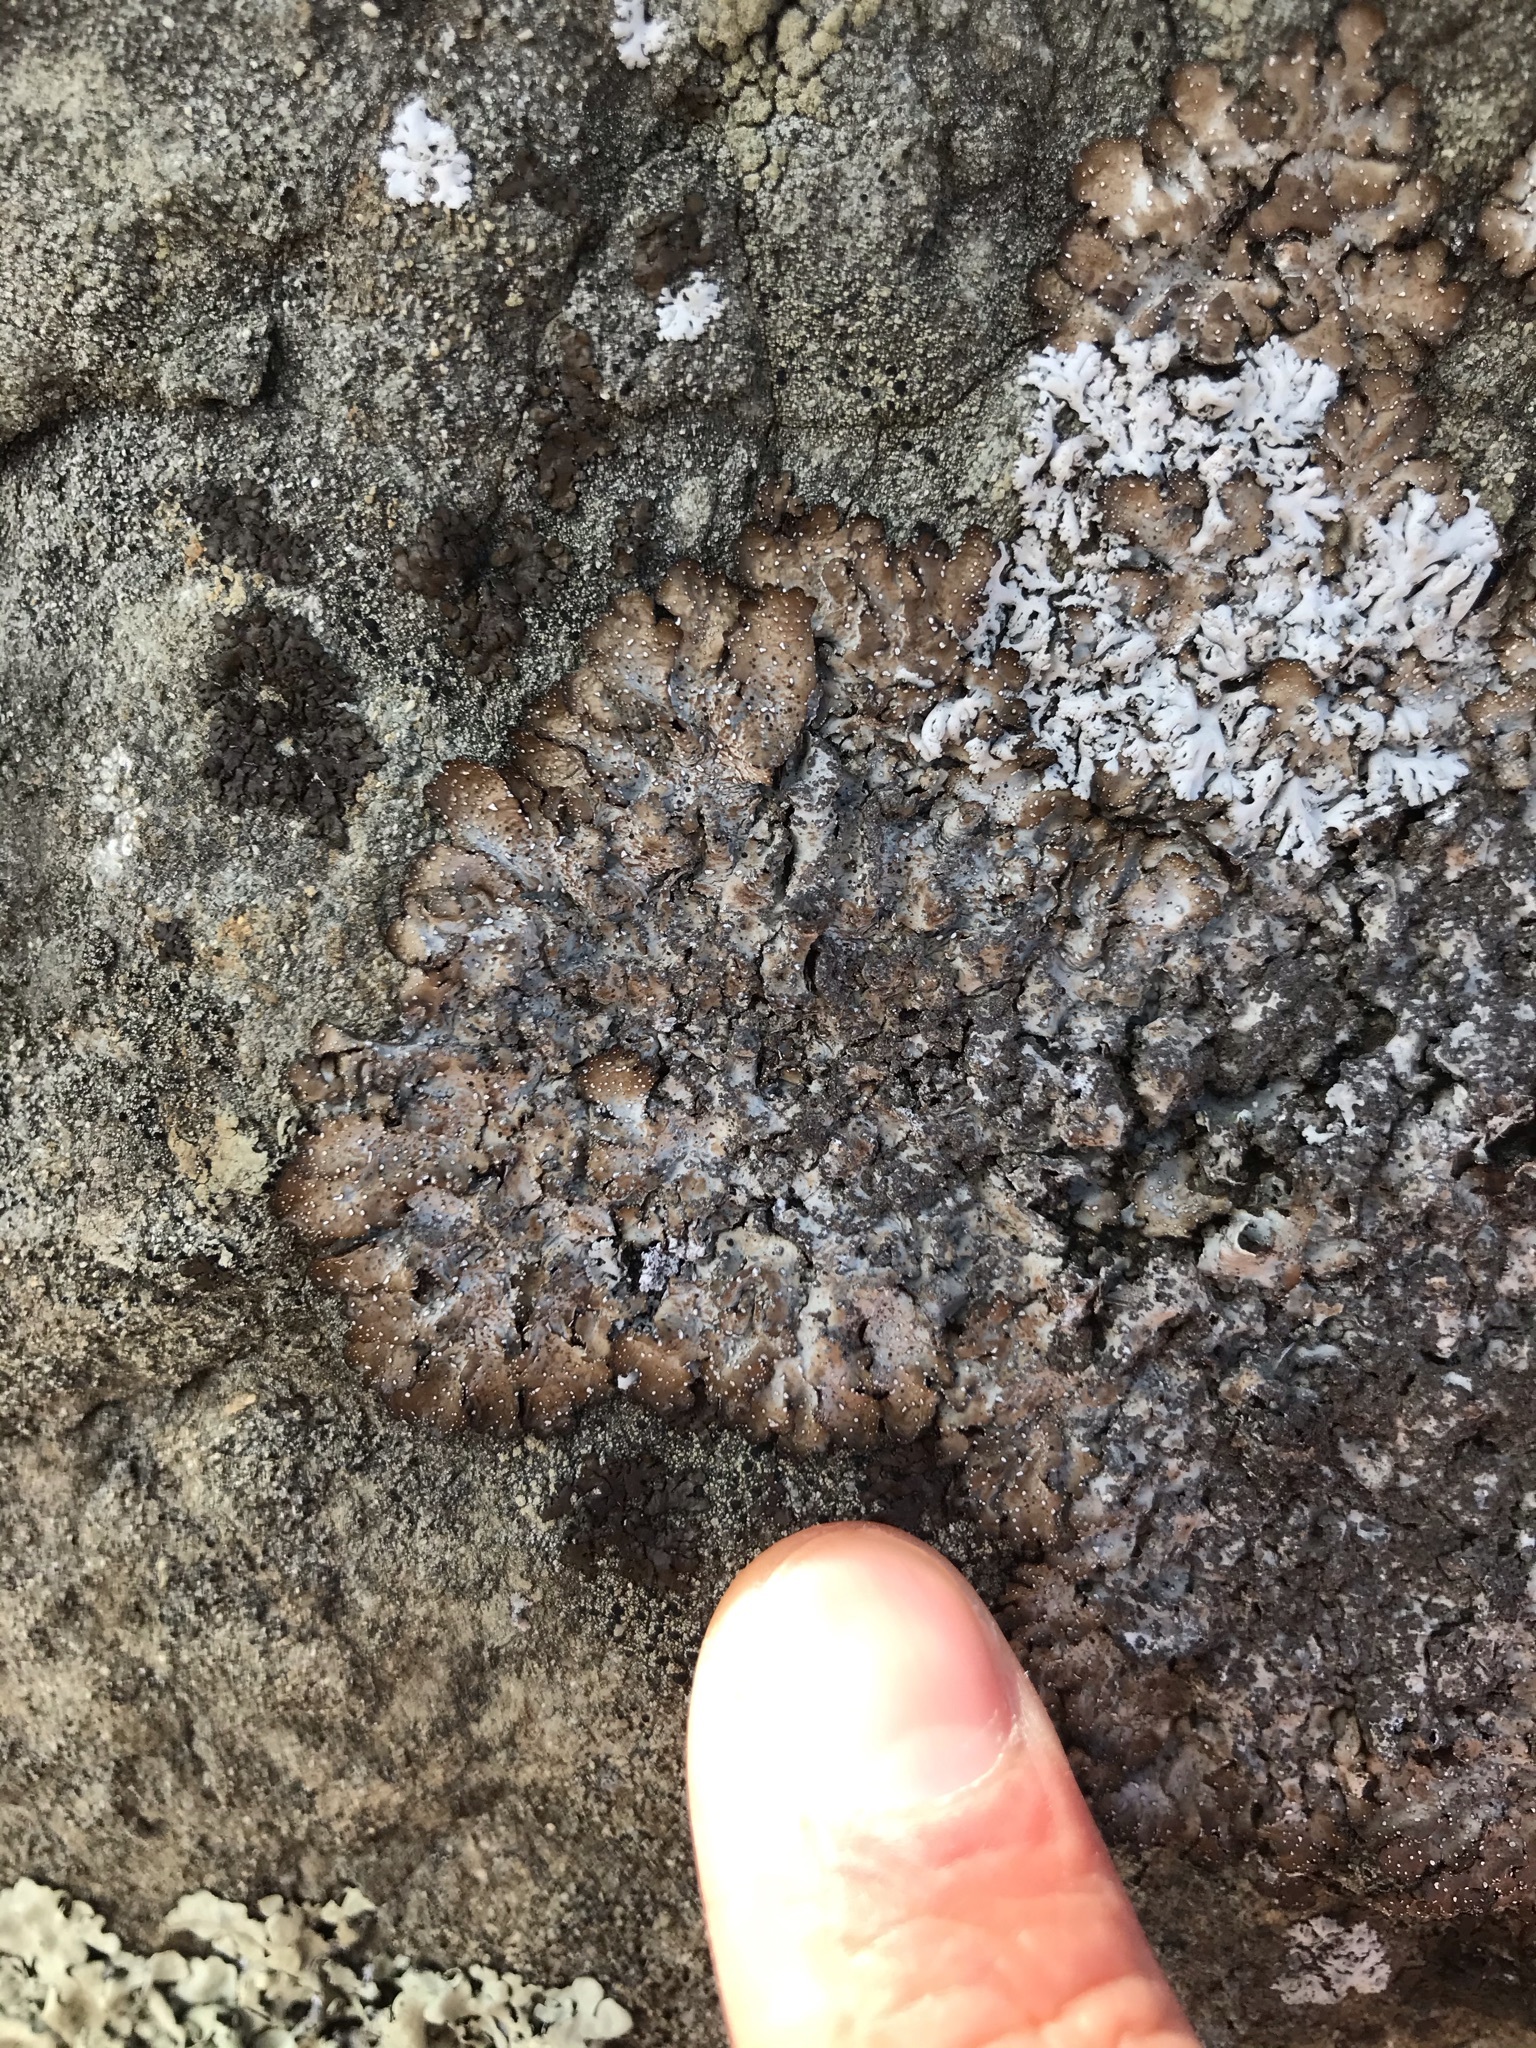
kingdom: Fungi
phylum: Ascomycota
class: Lecanoromycetes
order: Lecanorales
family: Parmeliaceae
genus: Punctelia
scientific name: Punctelia stictica
